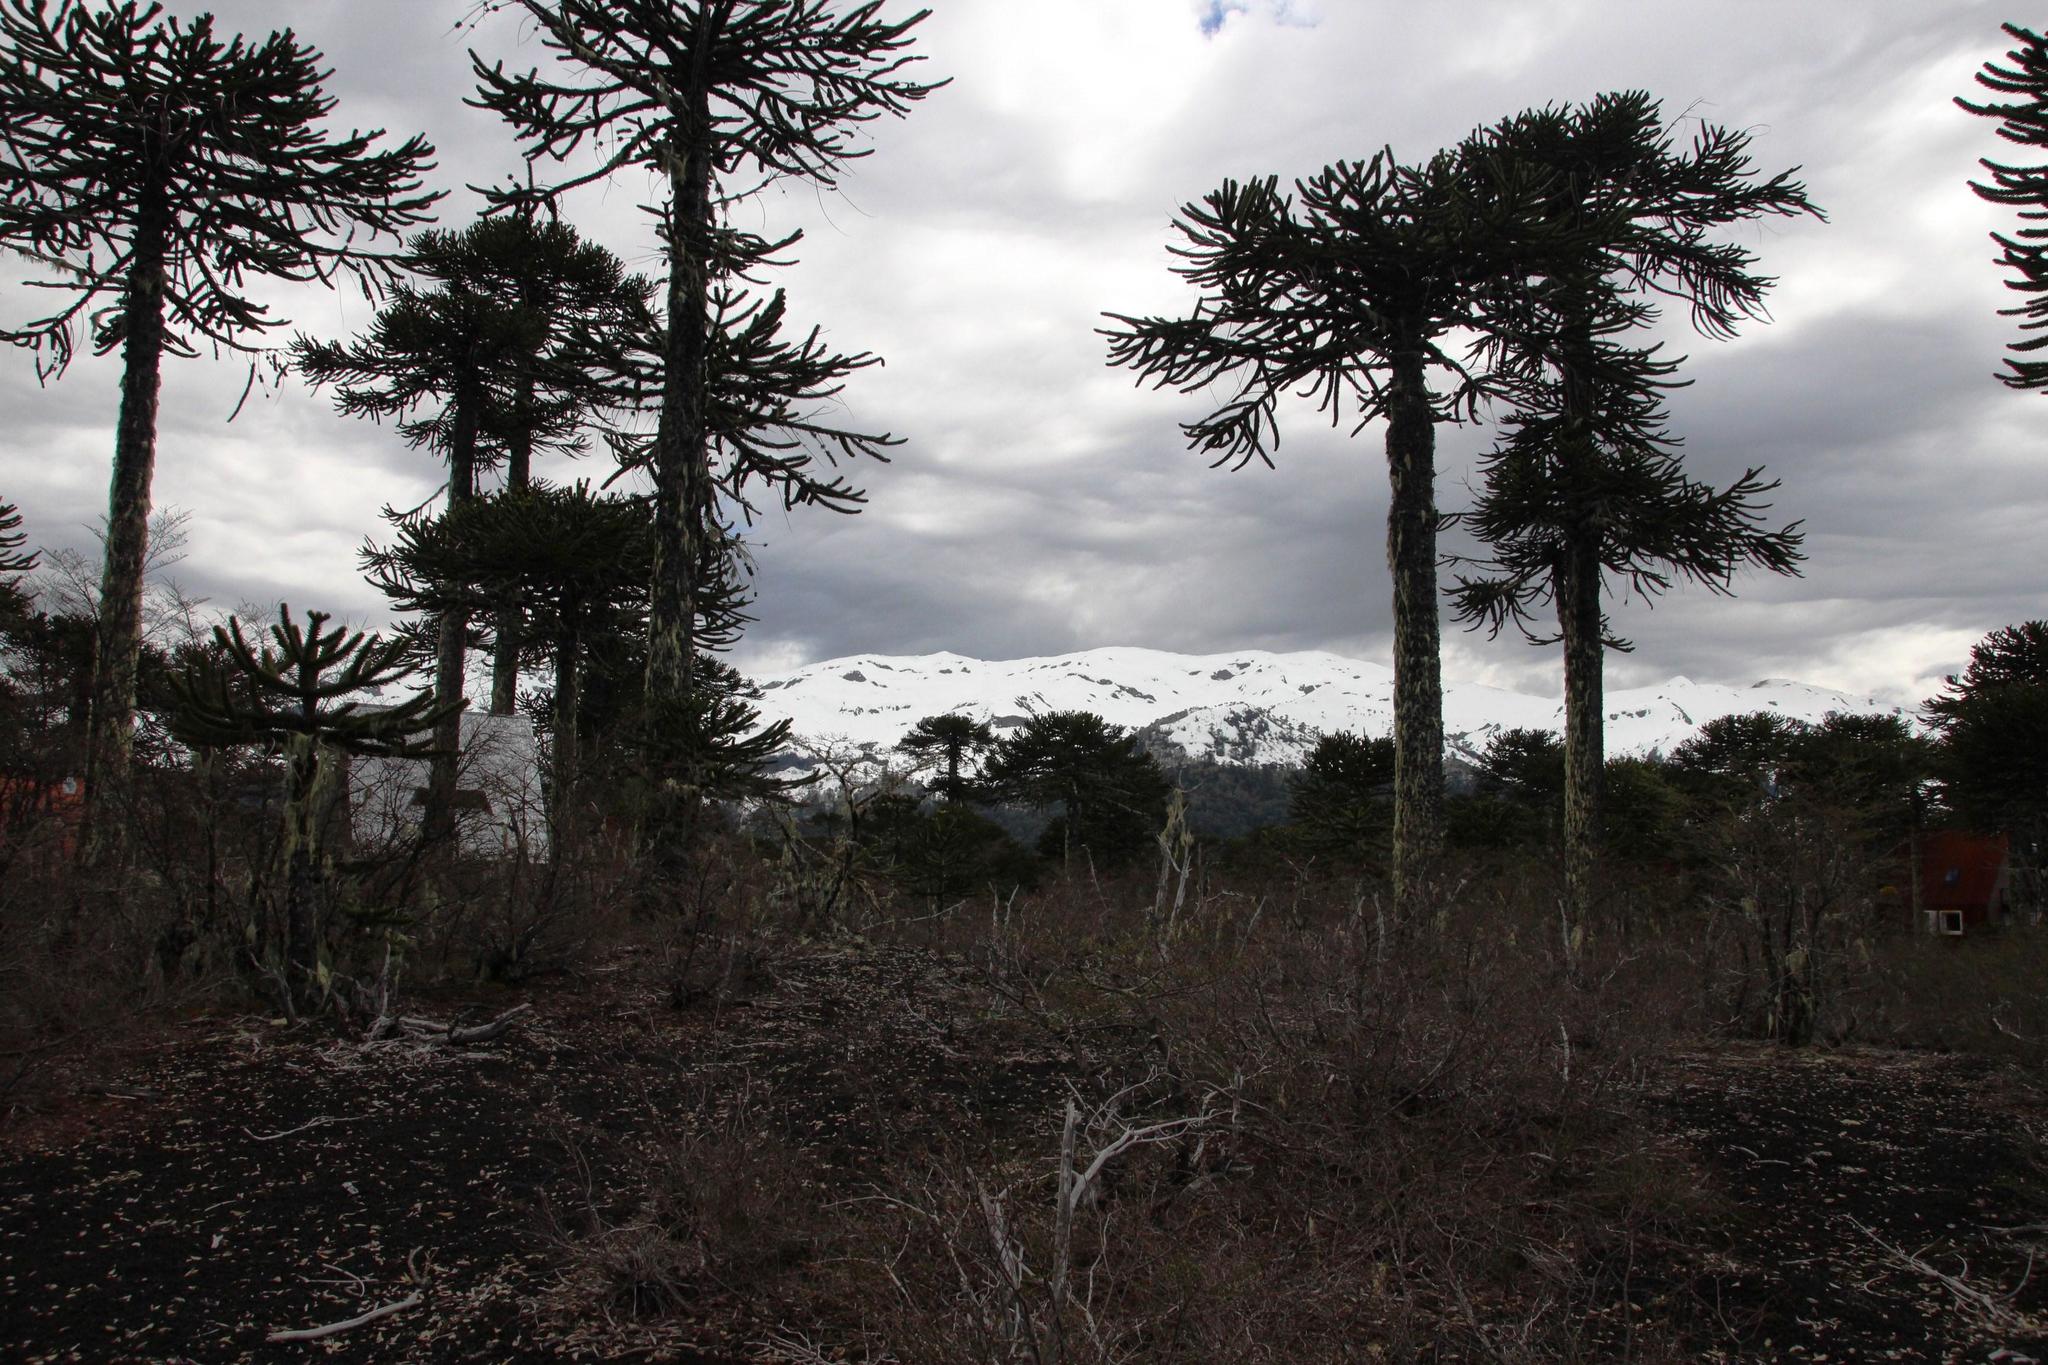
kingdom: Plantae
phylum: Tracheophyta
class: Pinopsida
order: Pinales
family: Araucariaceae
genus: Araucaria
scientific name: Araucaria araucana
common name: Monkey-puzzle
